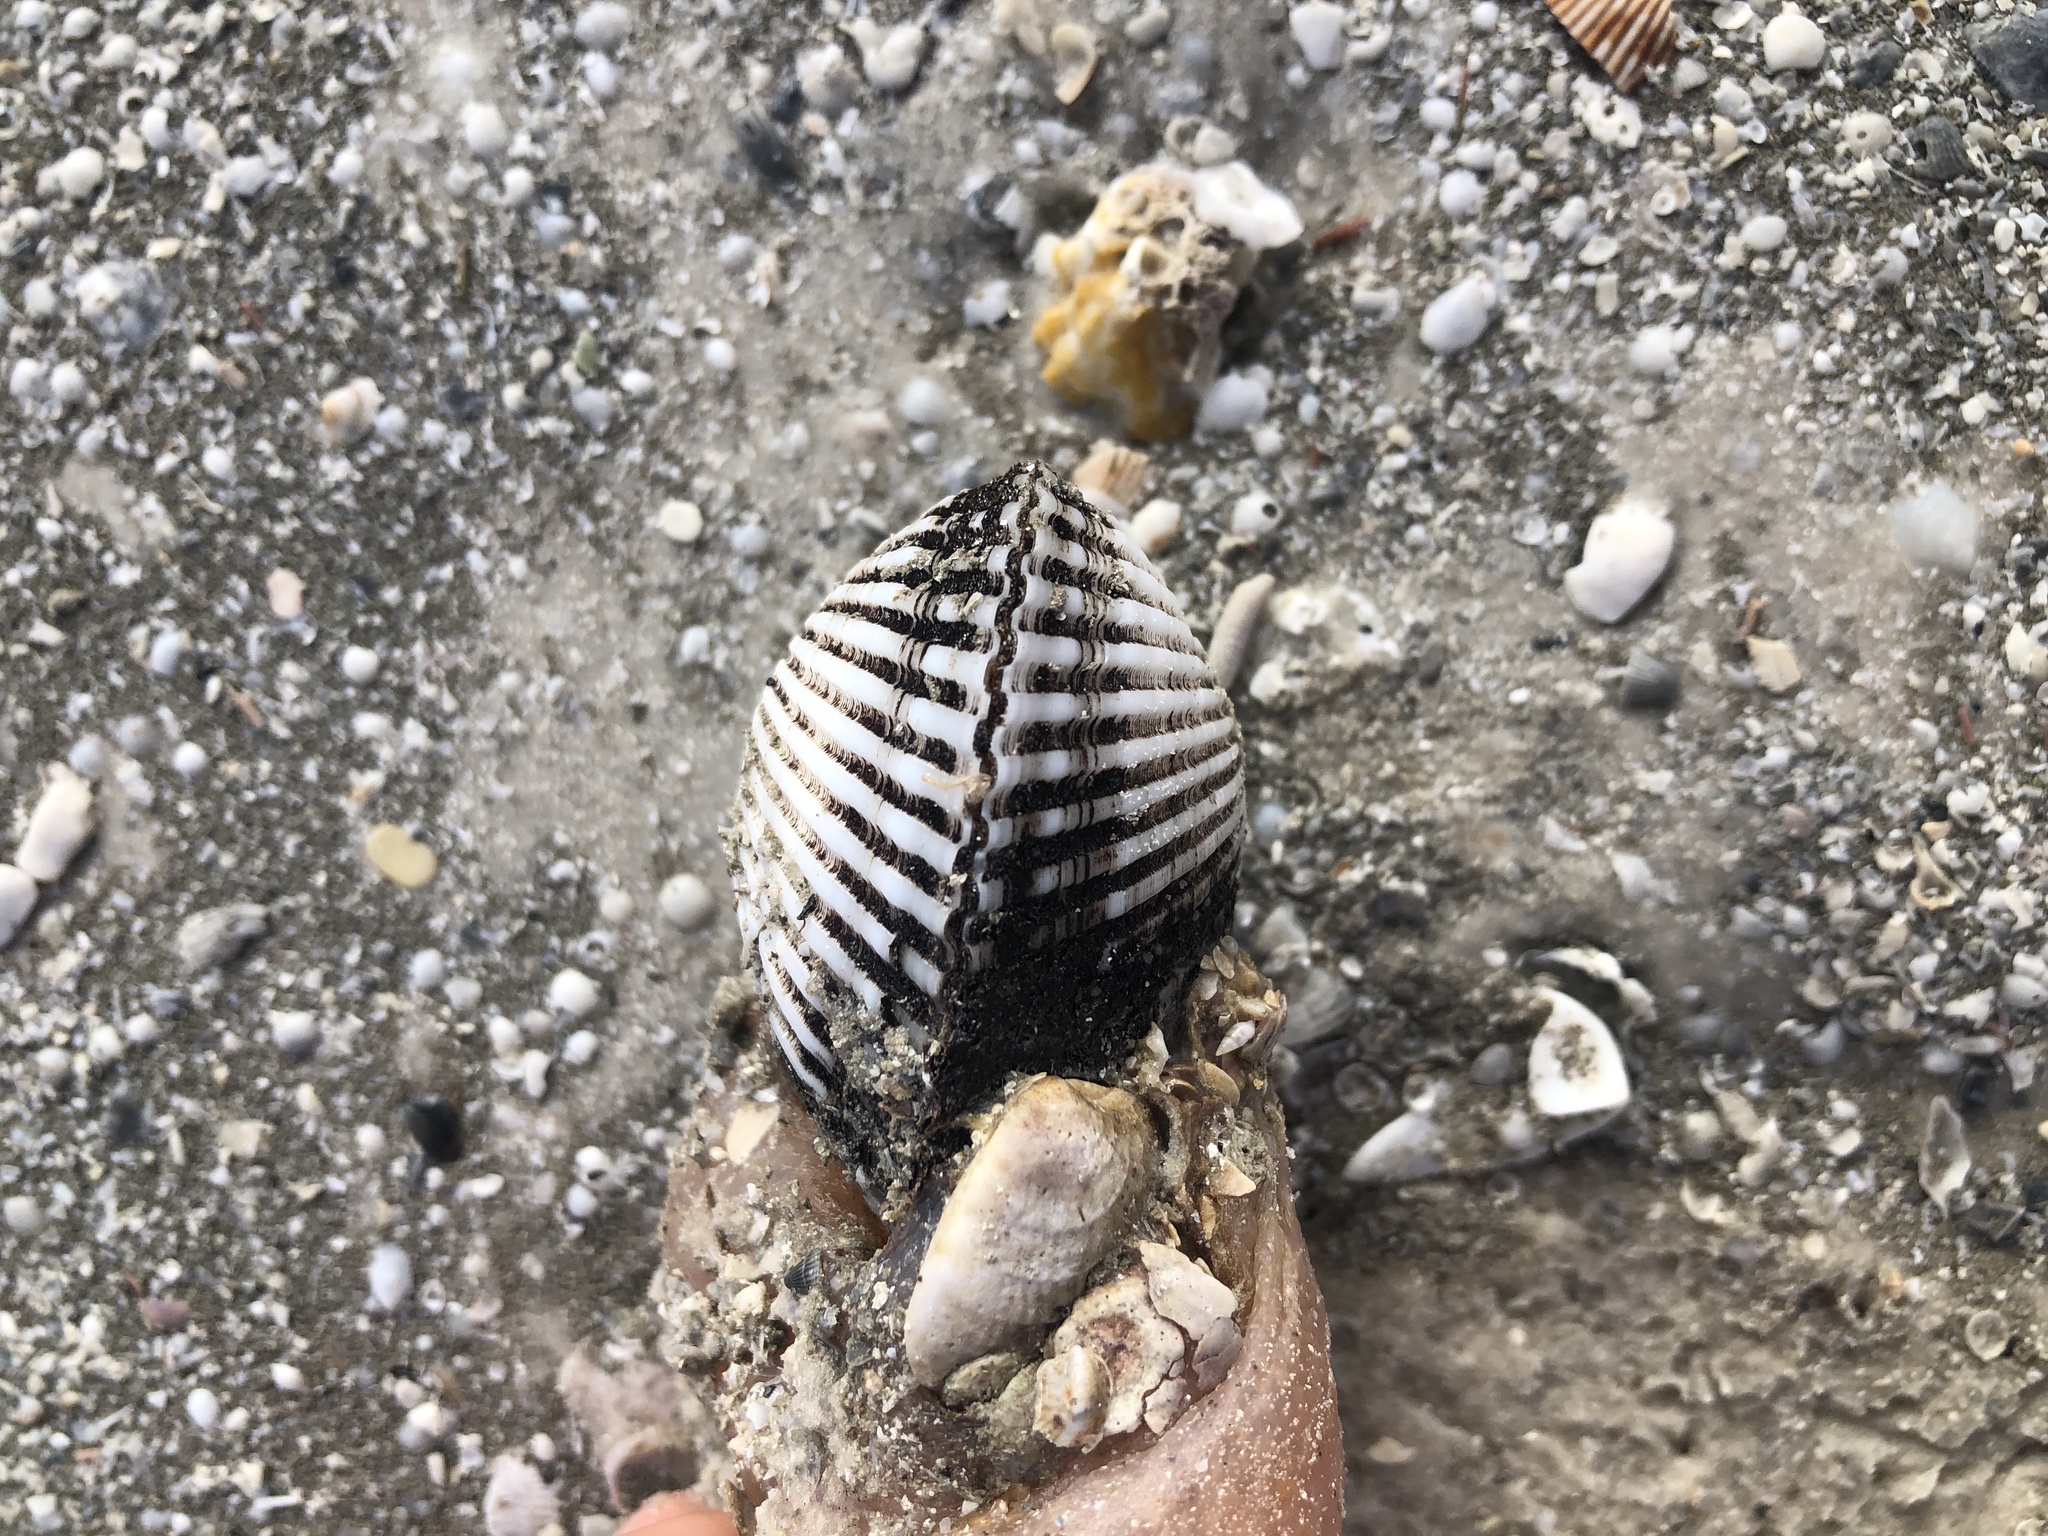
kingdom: Animalia
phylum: Mollusca
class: Bivalvia
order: Arcida
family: Noetiidae
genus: Noetia
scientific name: Noetia ponderosa
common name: Ponderous ark
